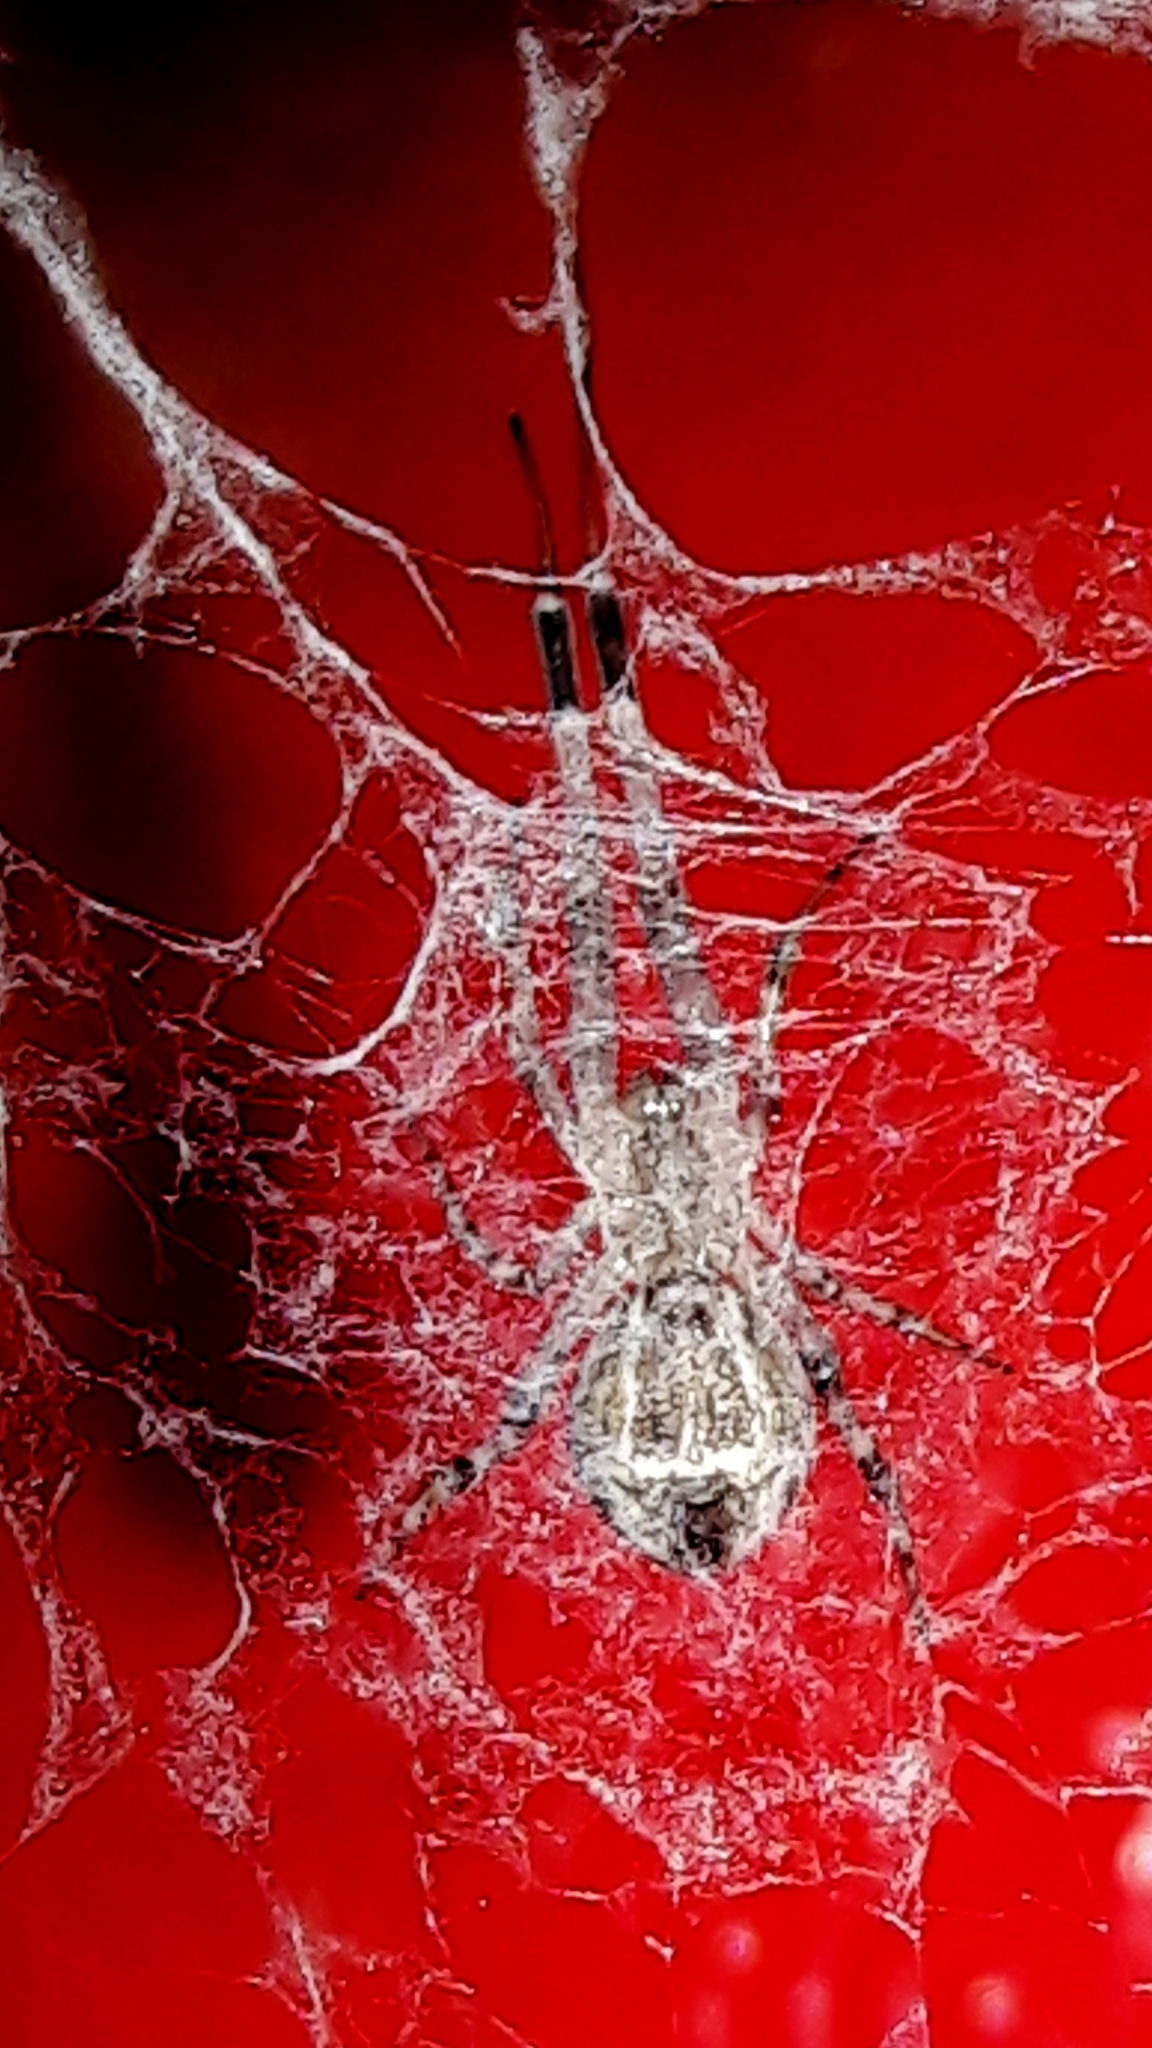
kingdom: Animalia
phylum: Arthropoda
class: Arachnida
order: Araneae
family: Uloboridae
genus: Zosis
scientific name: Zosis geniculata
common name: Hackled orb weavers
